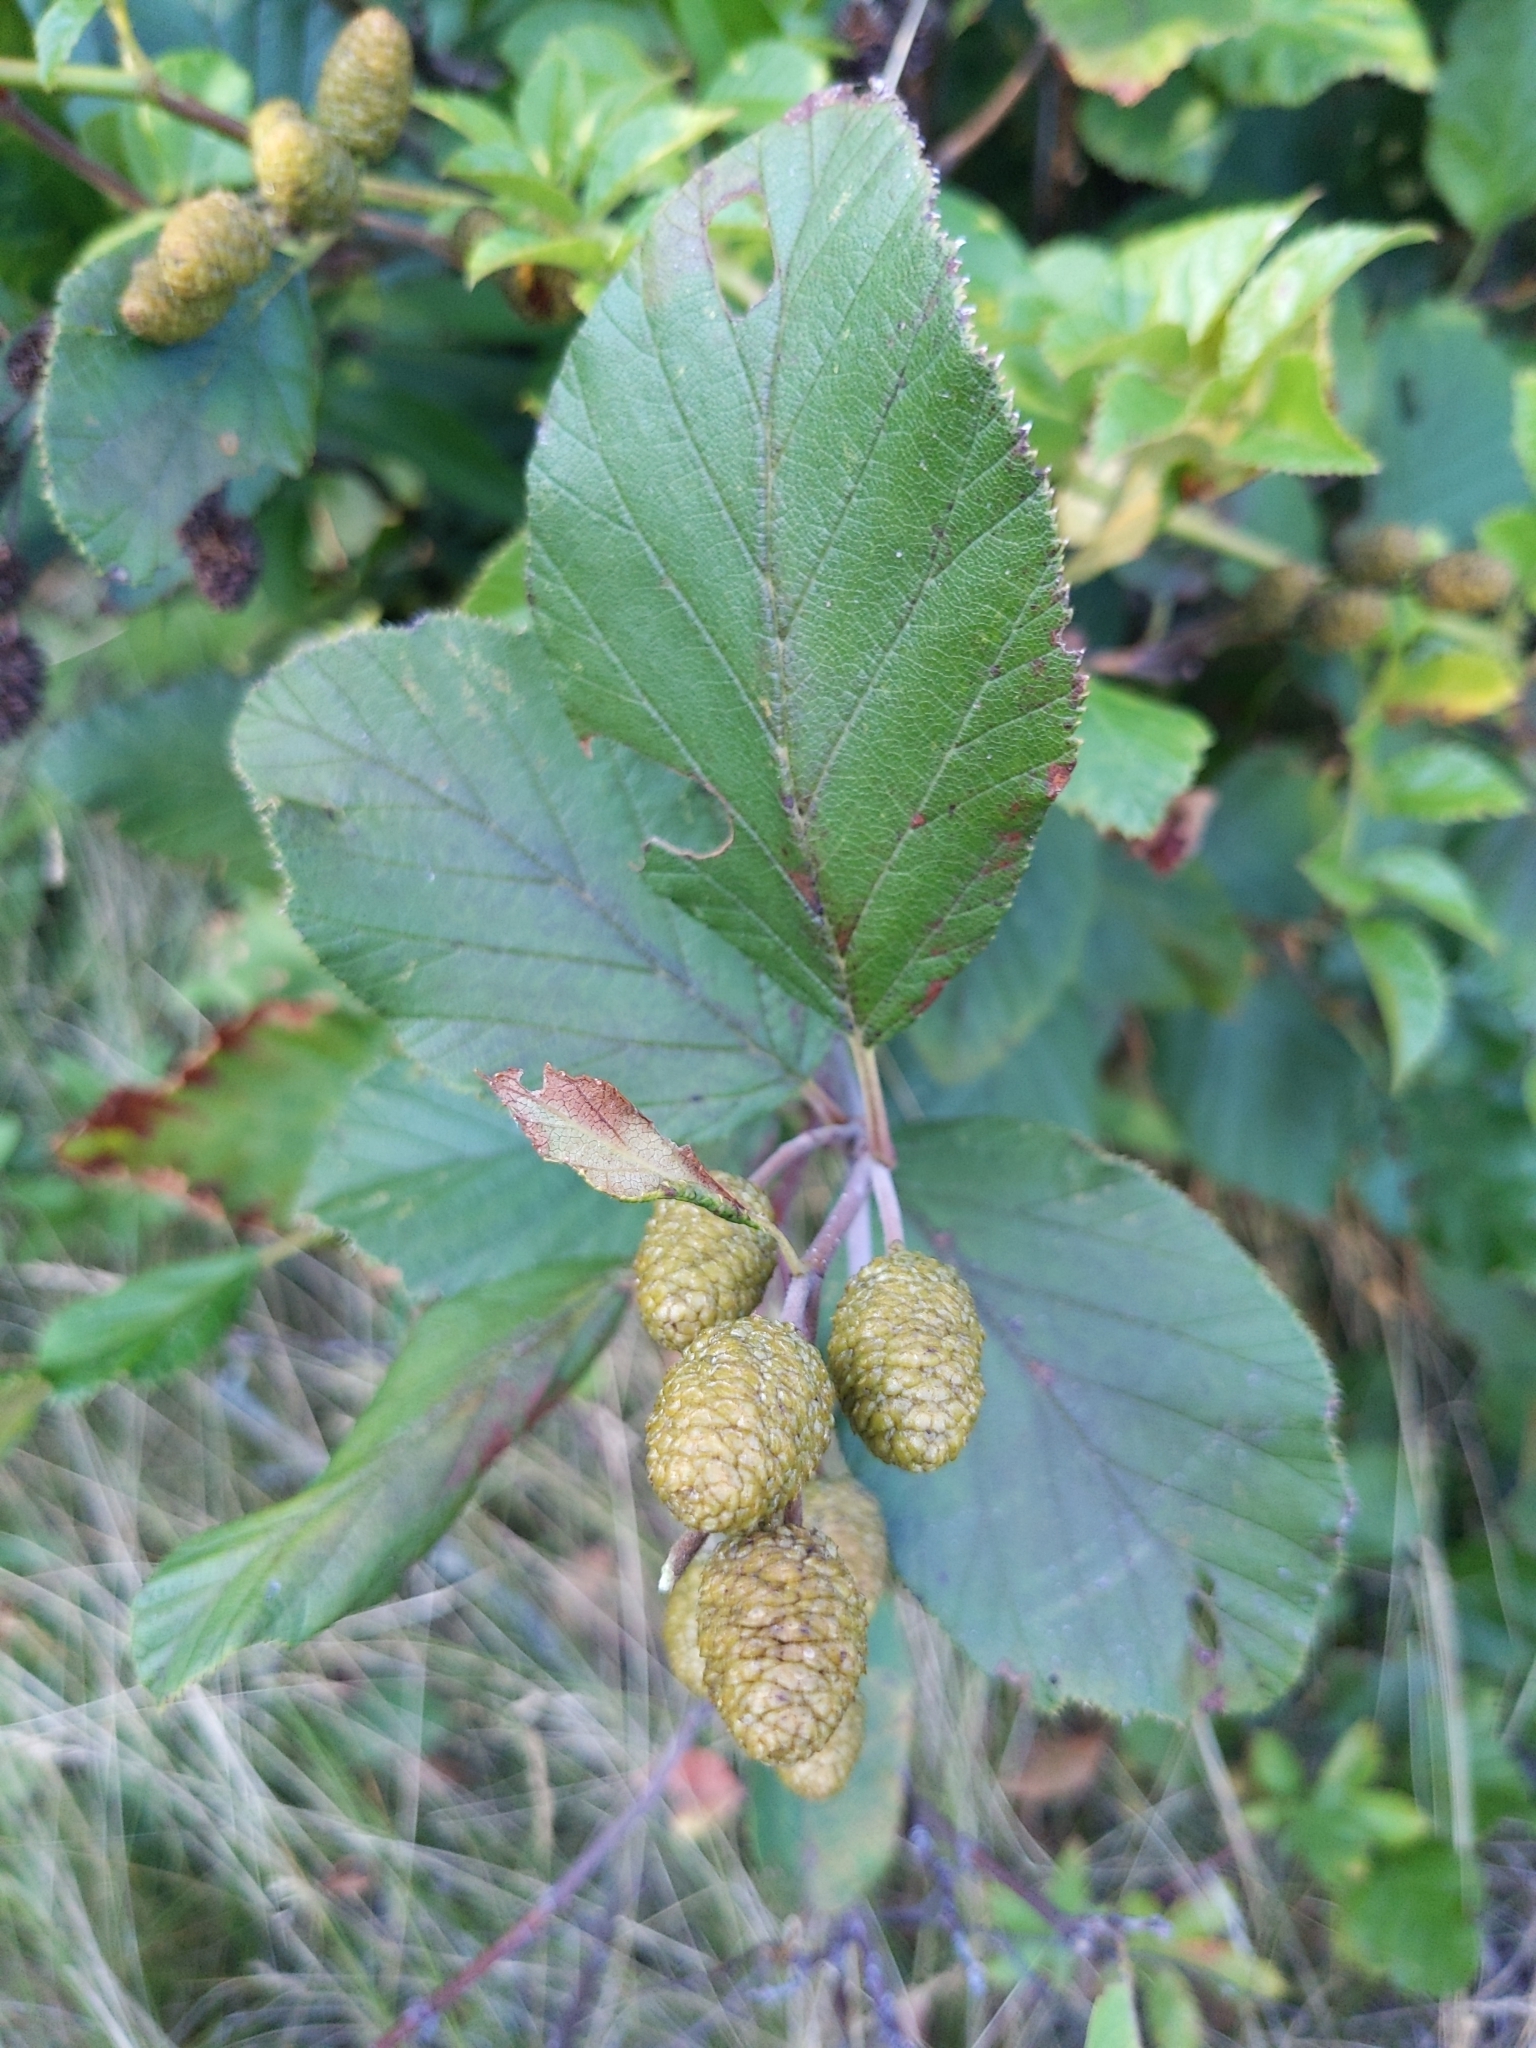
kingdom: Plantae
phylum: Tracheophyta
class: Magnoliopsida
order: Fagales
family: Betulaceae
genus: Alnus
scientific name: Alnus alnobetula
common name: Green alder
